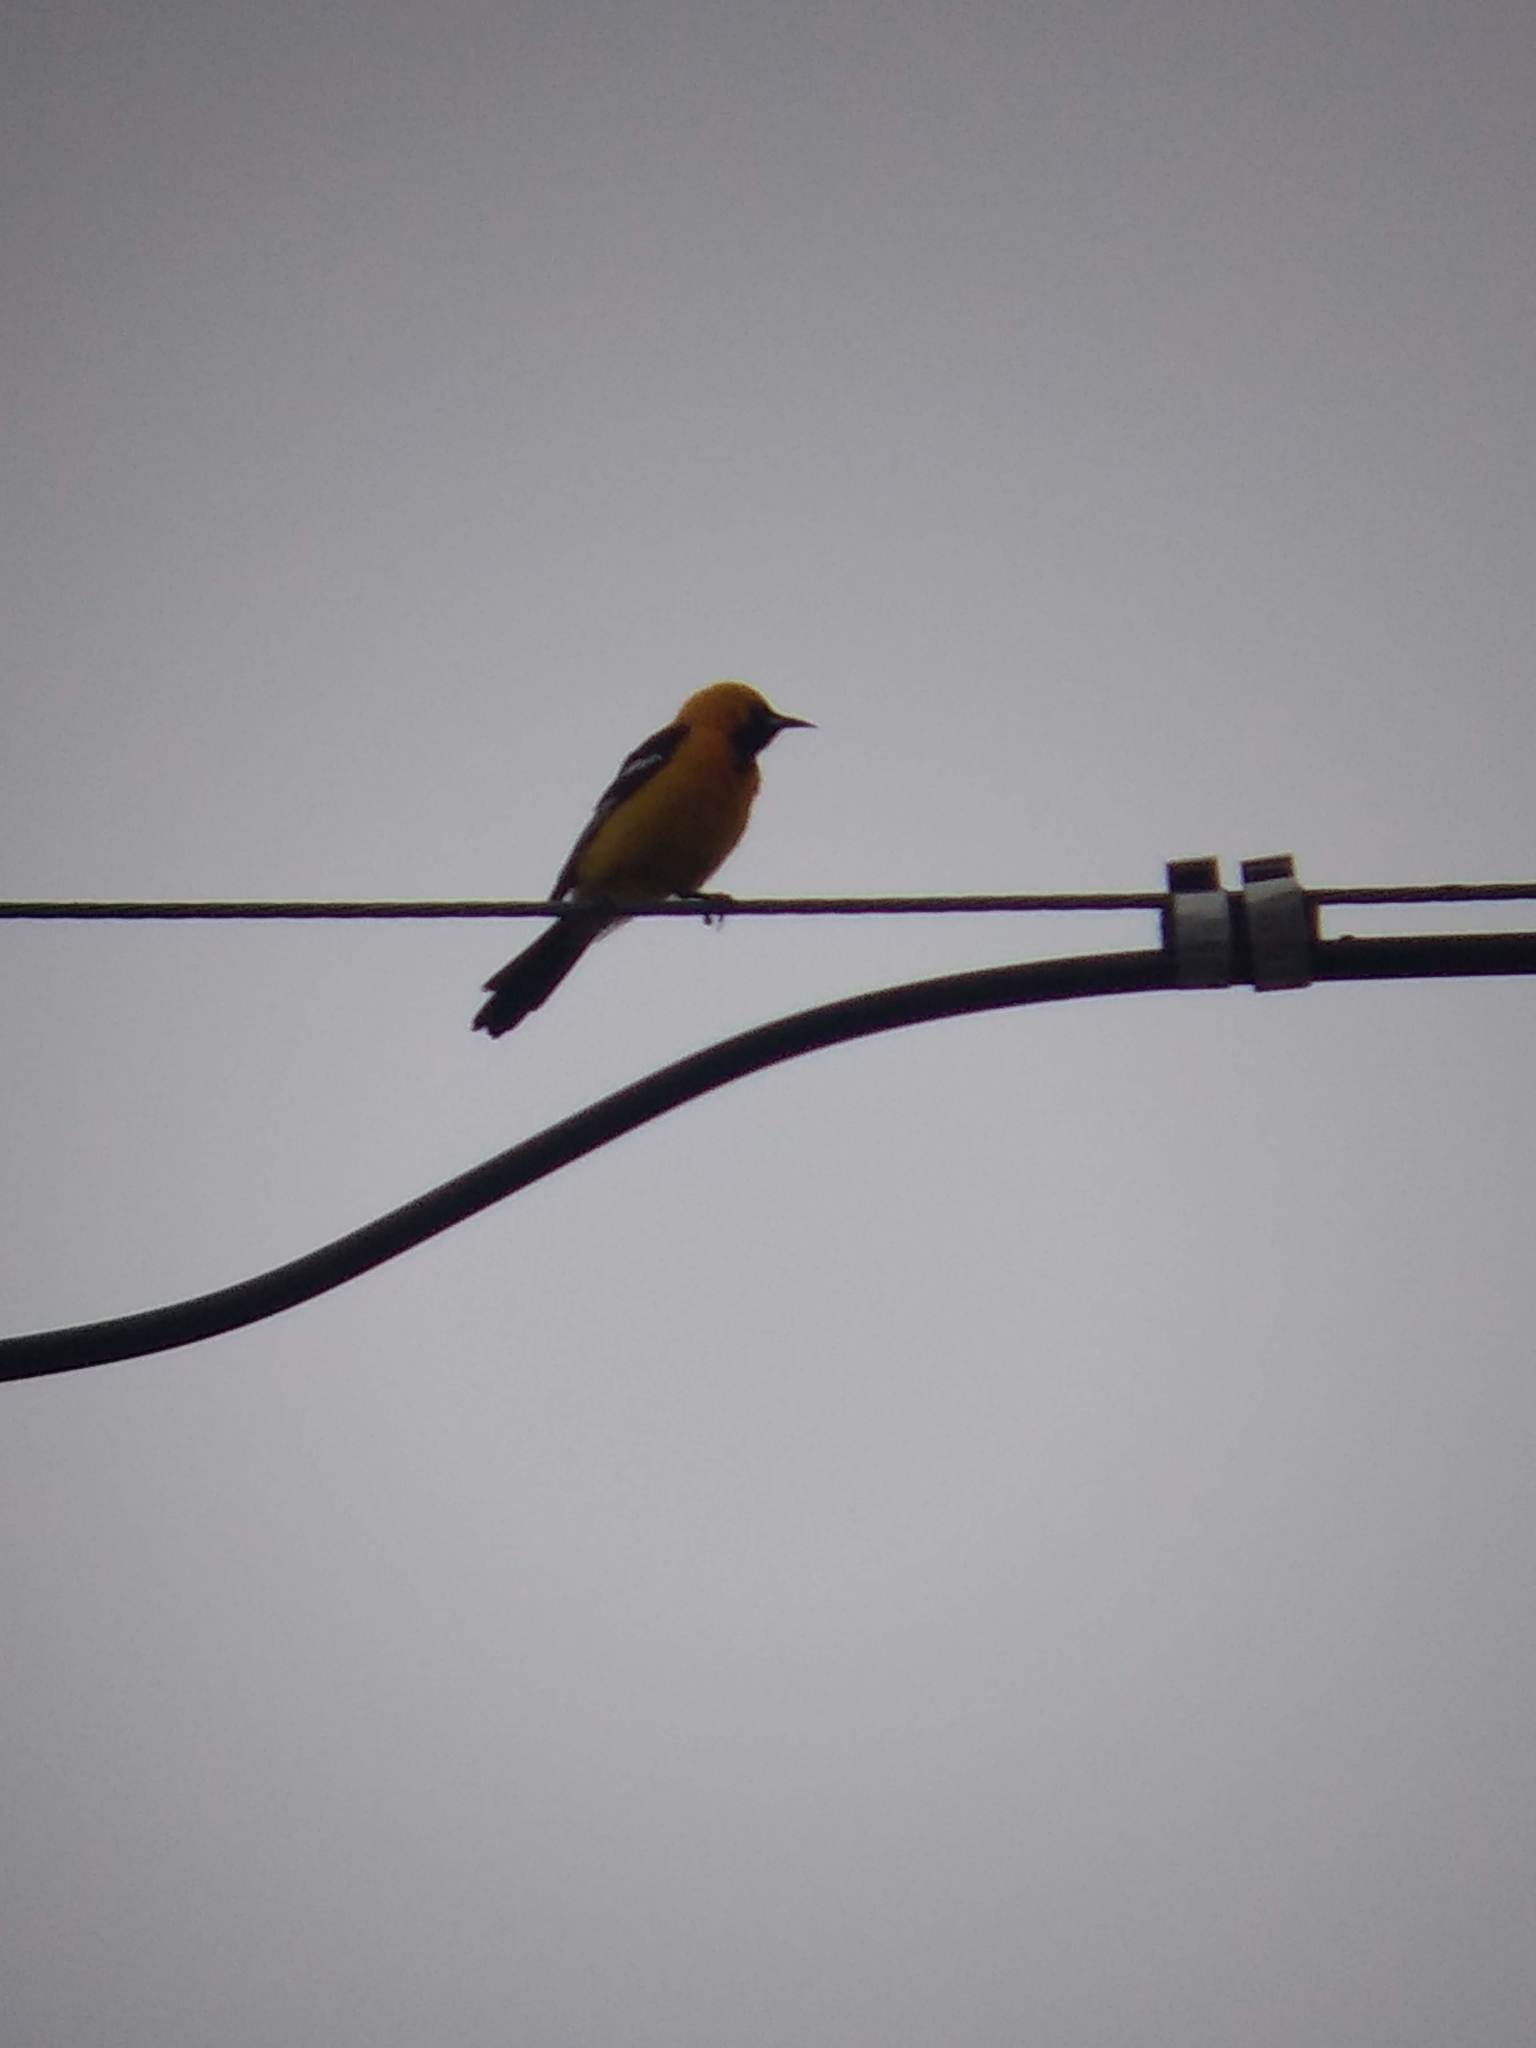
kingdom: Animalia
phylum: Chordata
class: Aves
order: Passeriformes
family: Icteridae
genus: Icterus
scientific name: Icterus cucullatus
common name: Hooded oriole
